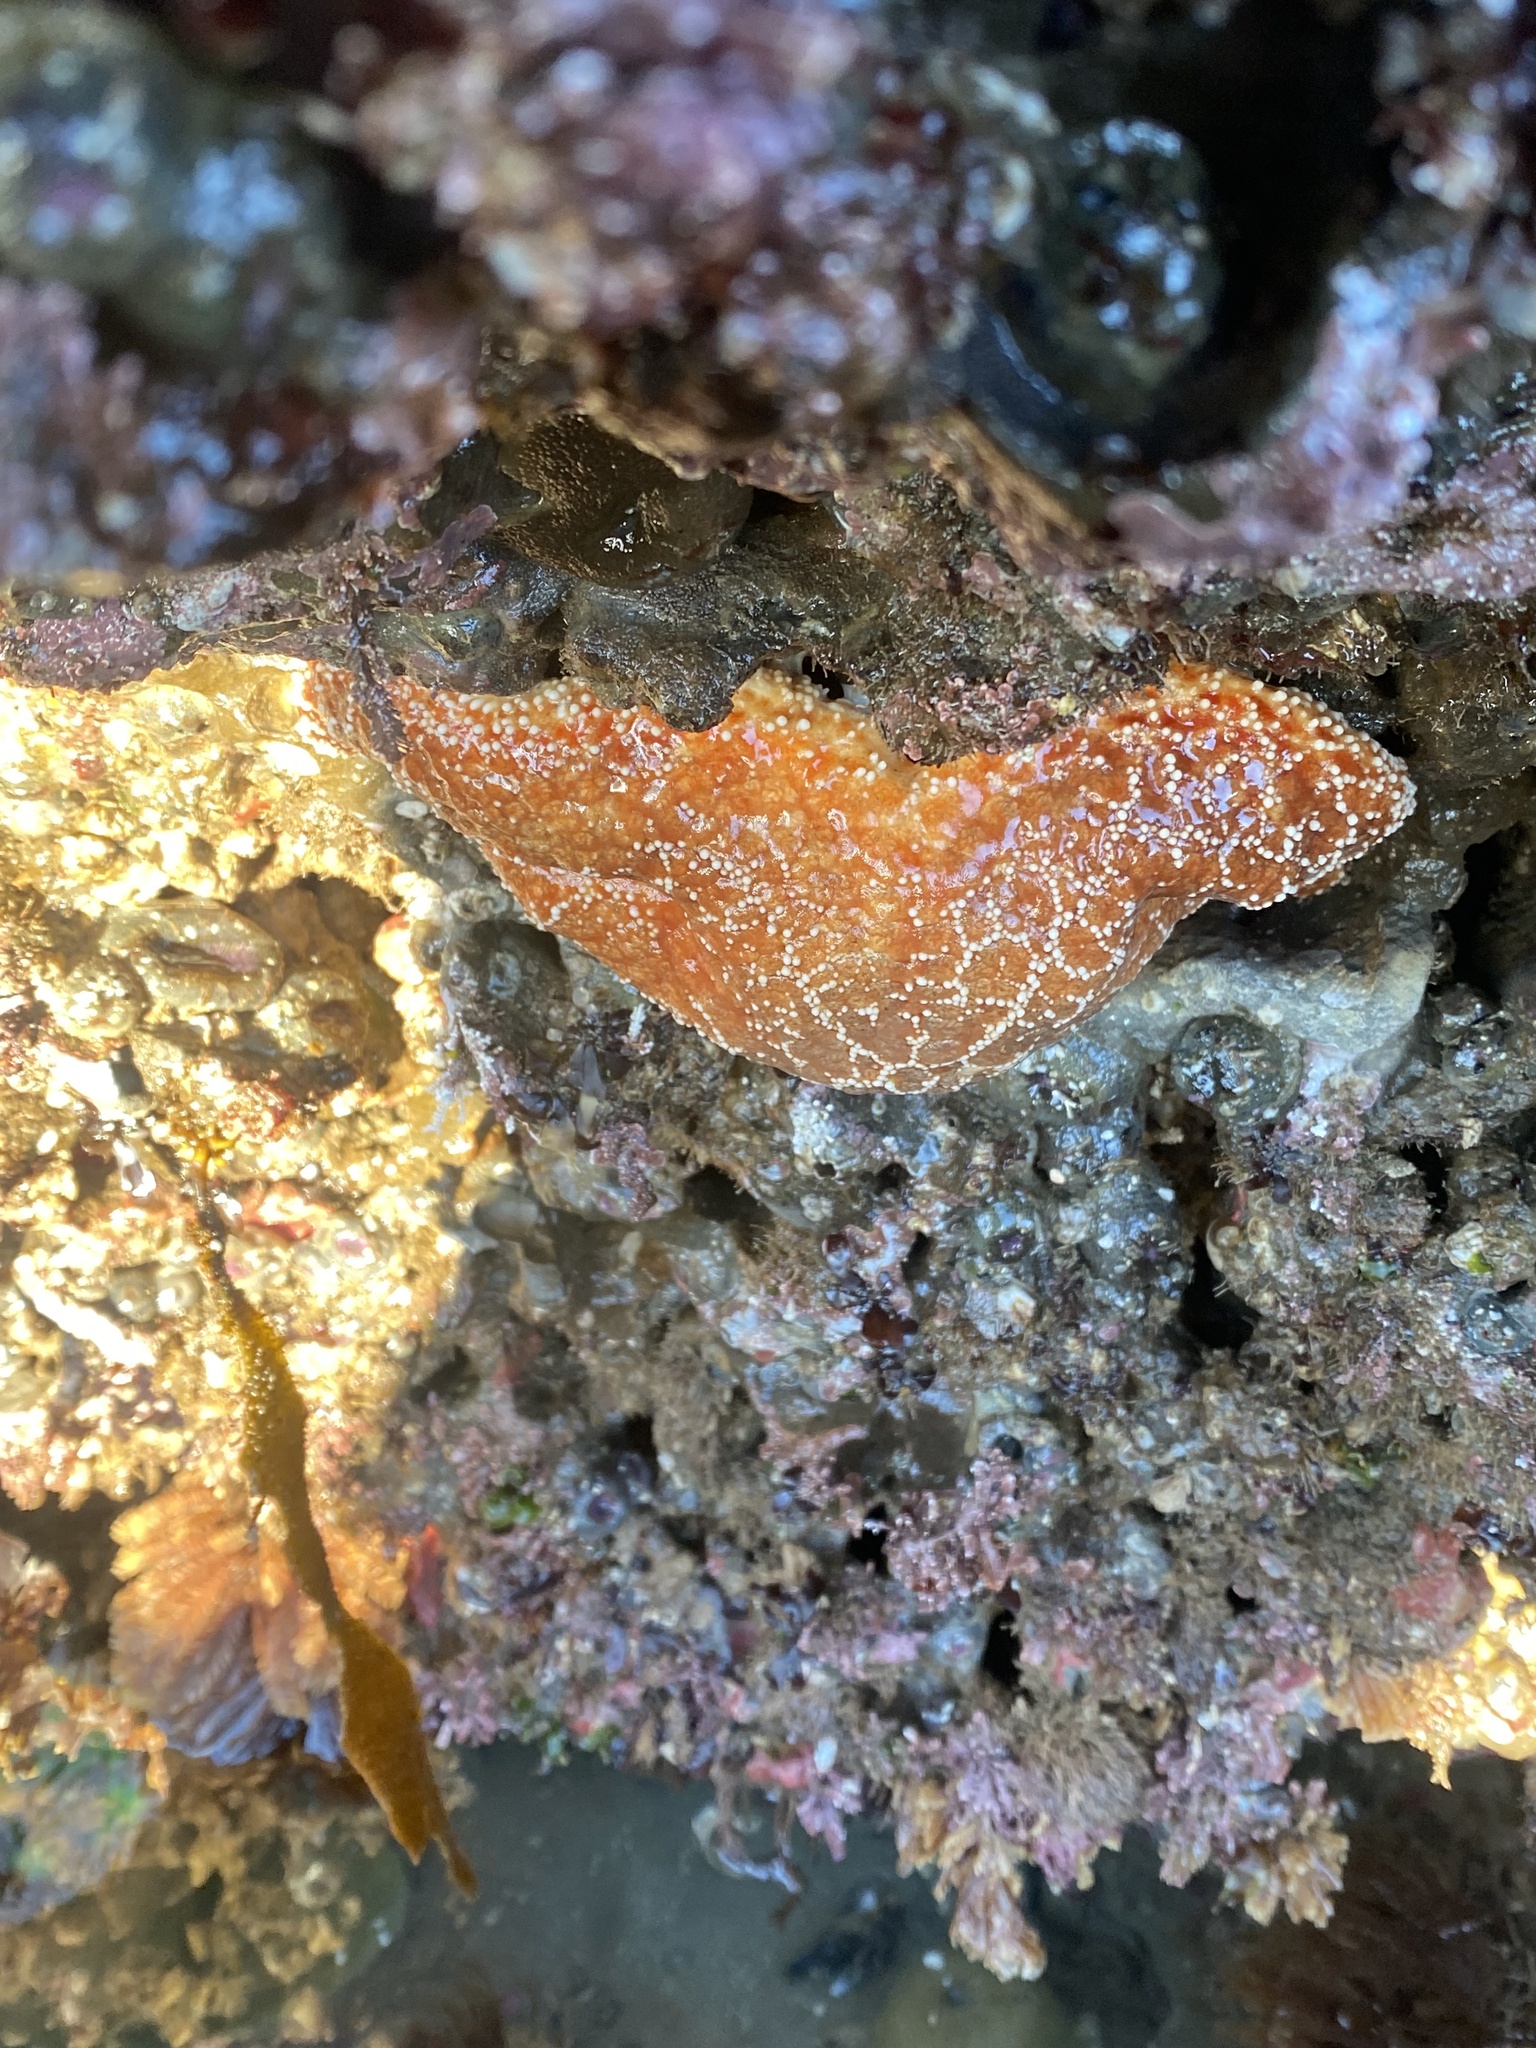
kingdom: Animalia
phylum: Echinodermata
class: Asteroidea
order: Forcipulatida
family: Asteriidae
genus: Pisaster
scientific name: Pisaster ochraceus
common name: Ochre stars
